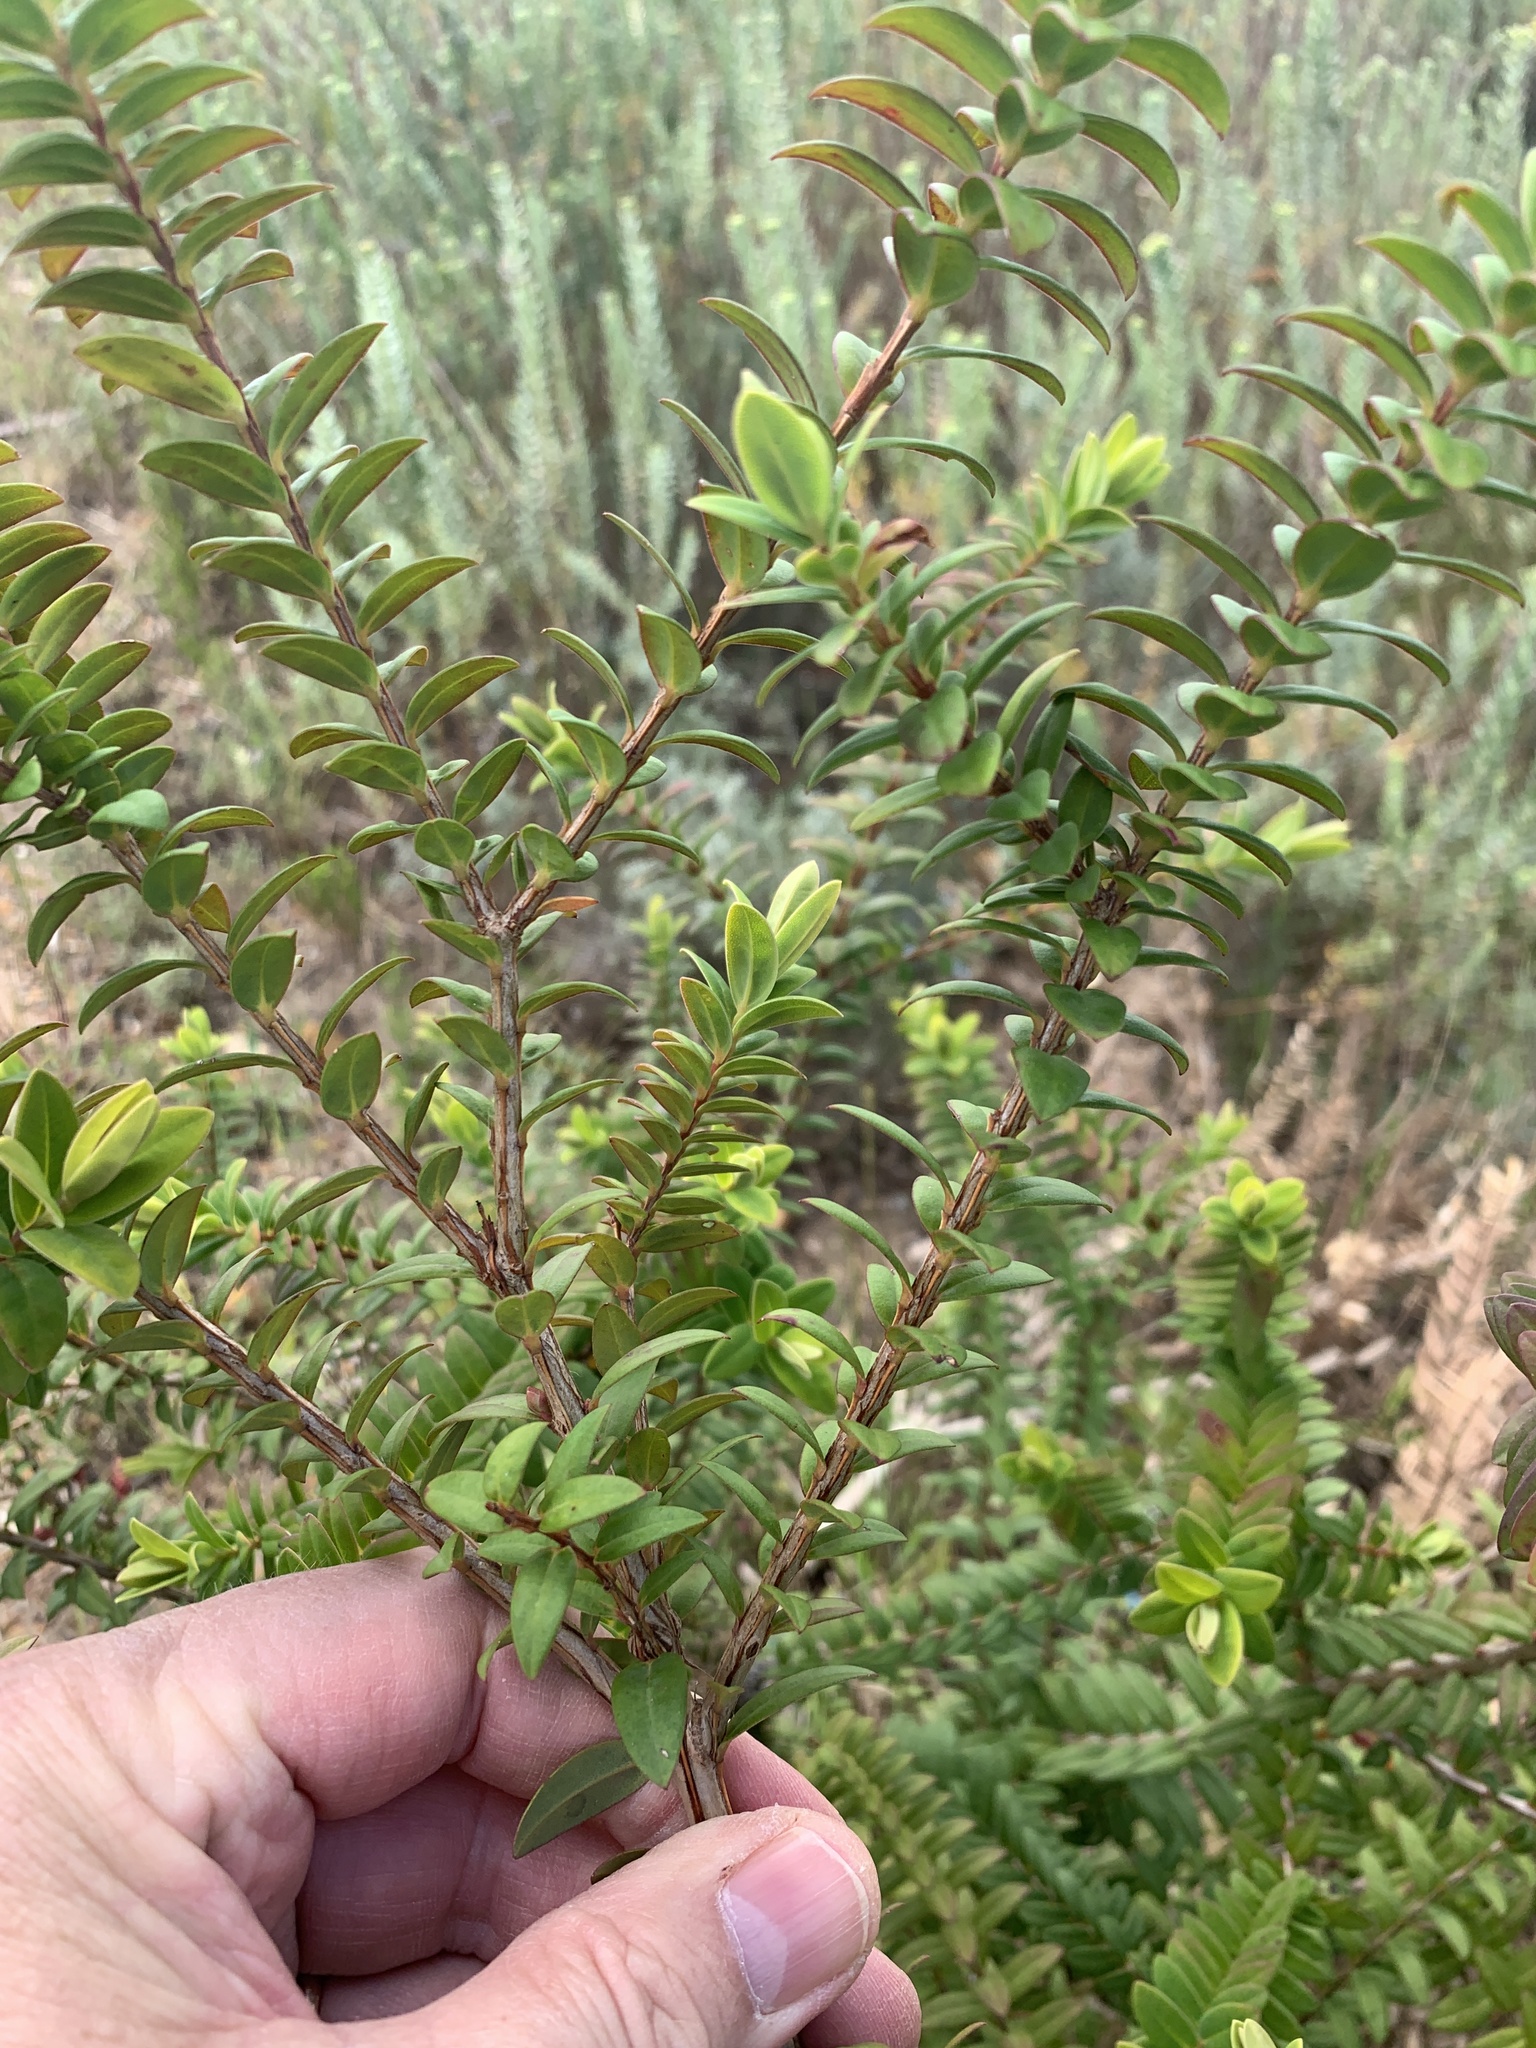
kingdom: Plantae
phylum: Tracheophyta
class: Magnoliopsida
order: Myrtales
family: Myrtaceae
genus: Melaleuca
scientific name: Melaleuca hypericifolia
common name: Red honey myrtle
